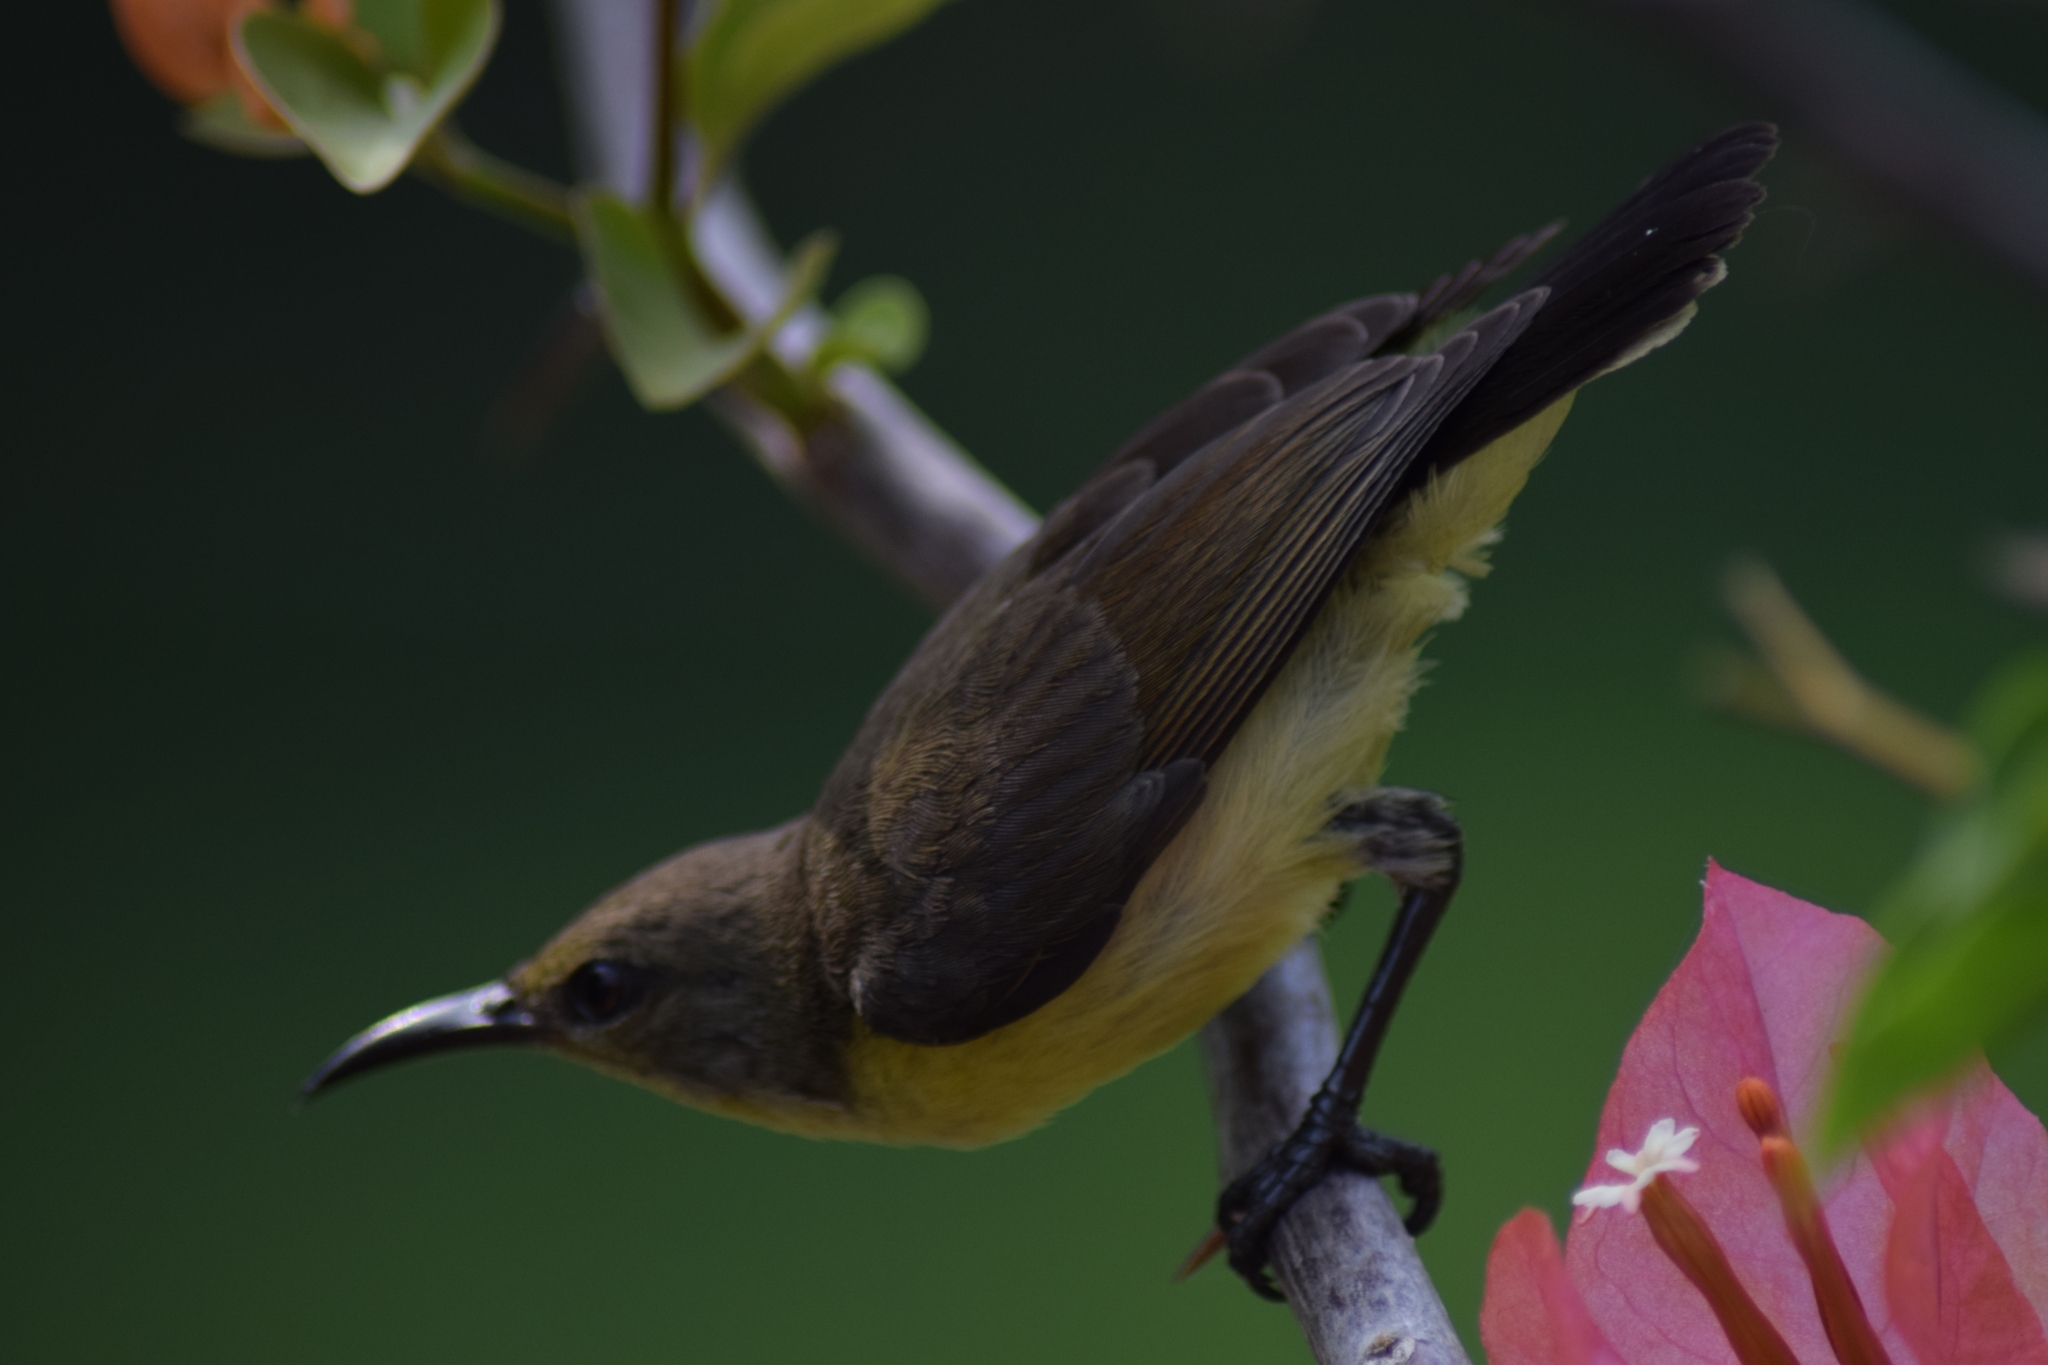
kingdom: Animalia
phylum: Chordata
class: Aves
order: Passeriformes
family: Nectariniidae
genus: Cinnyris
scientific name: Cinnyris asiaticus
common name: Purple sunbird
